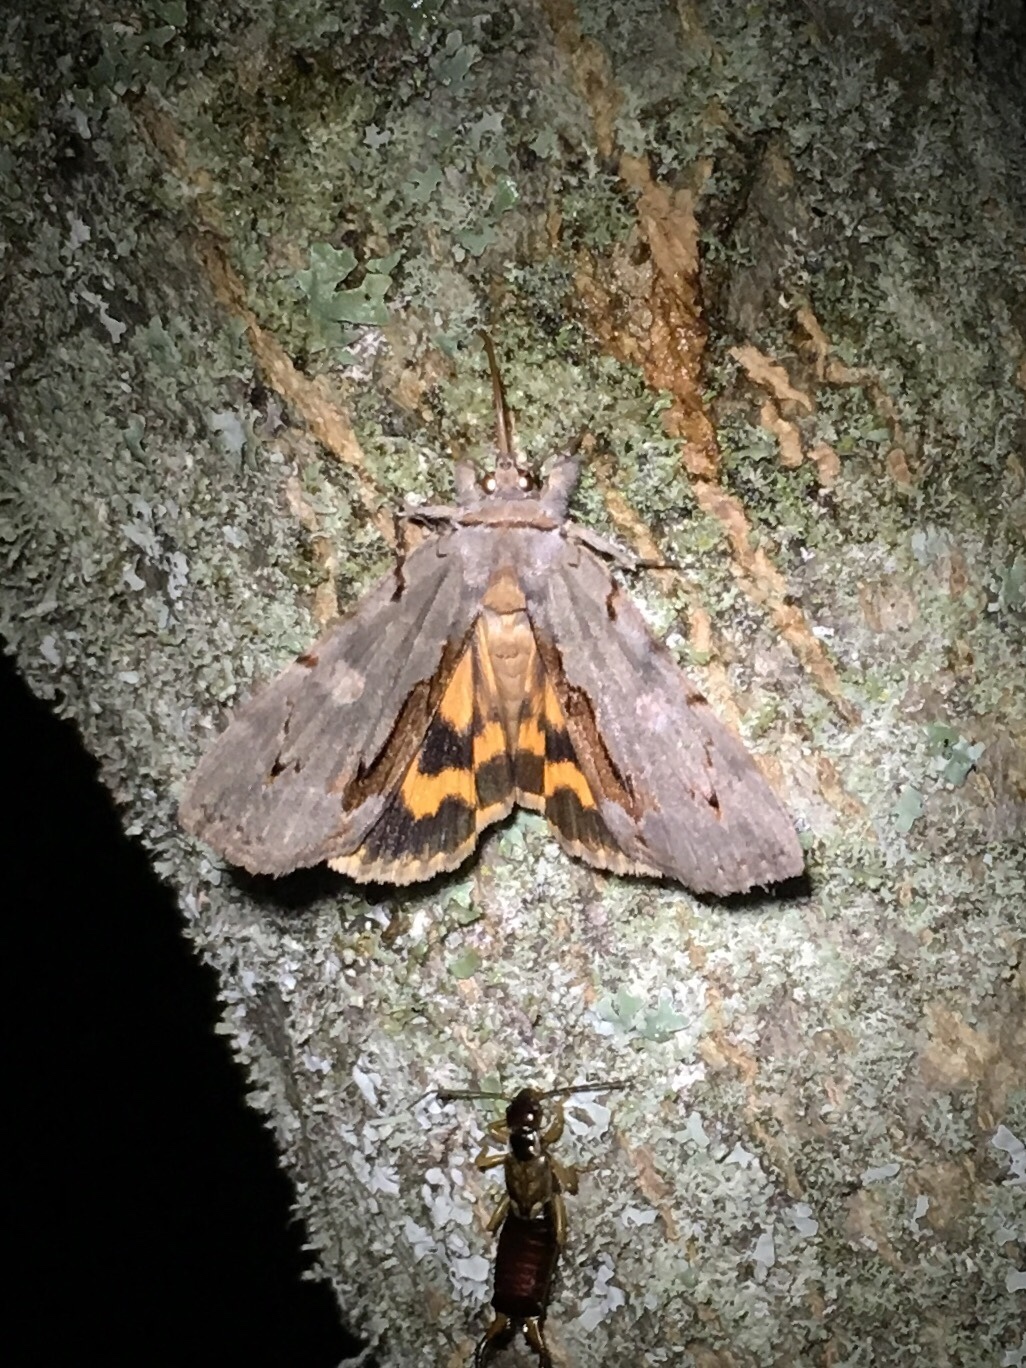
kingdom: Animalia
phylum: Arthropoda
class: Insecta
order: Lepidoptera
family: Erebidae
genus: Catocala
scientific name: Catocala grynea
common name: Woody underwing
